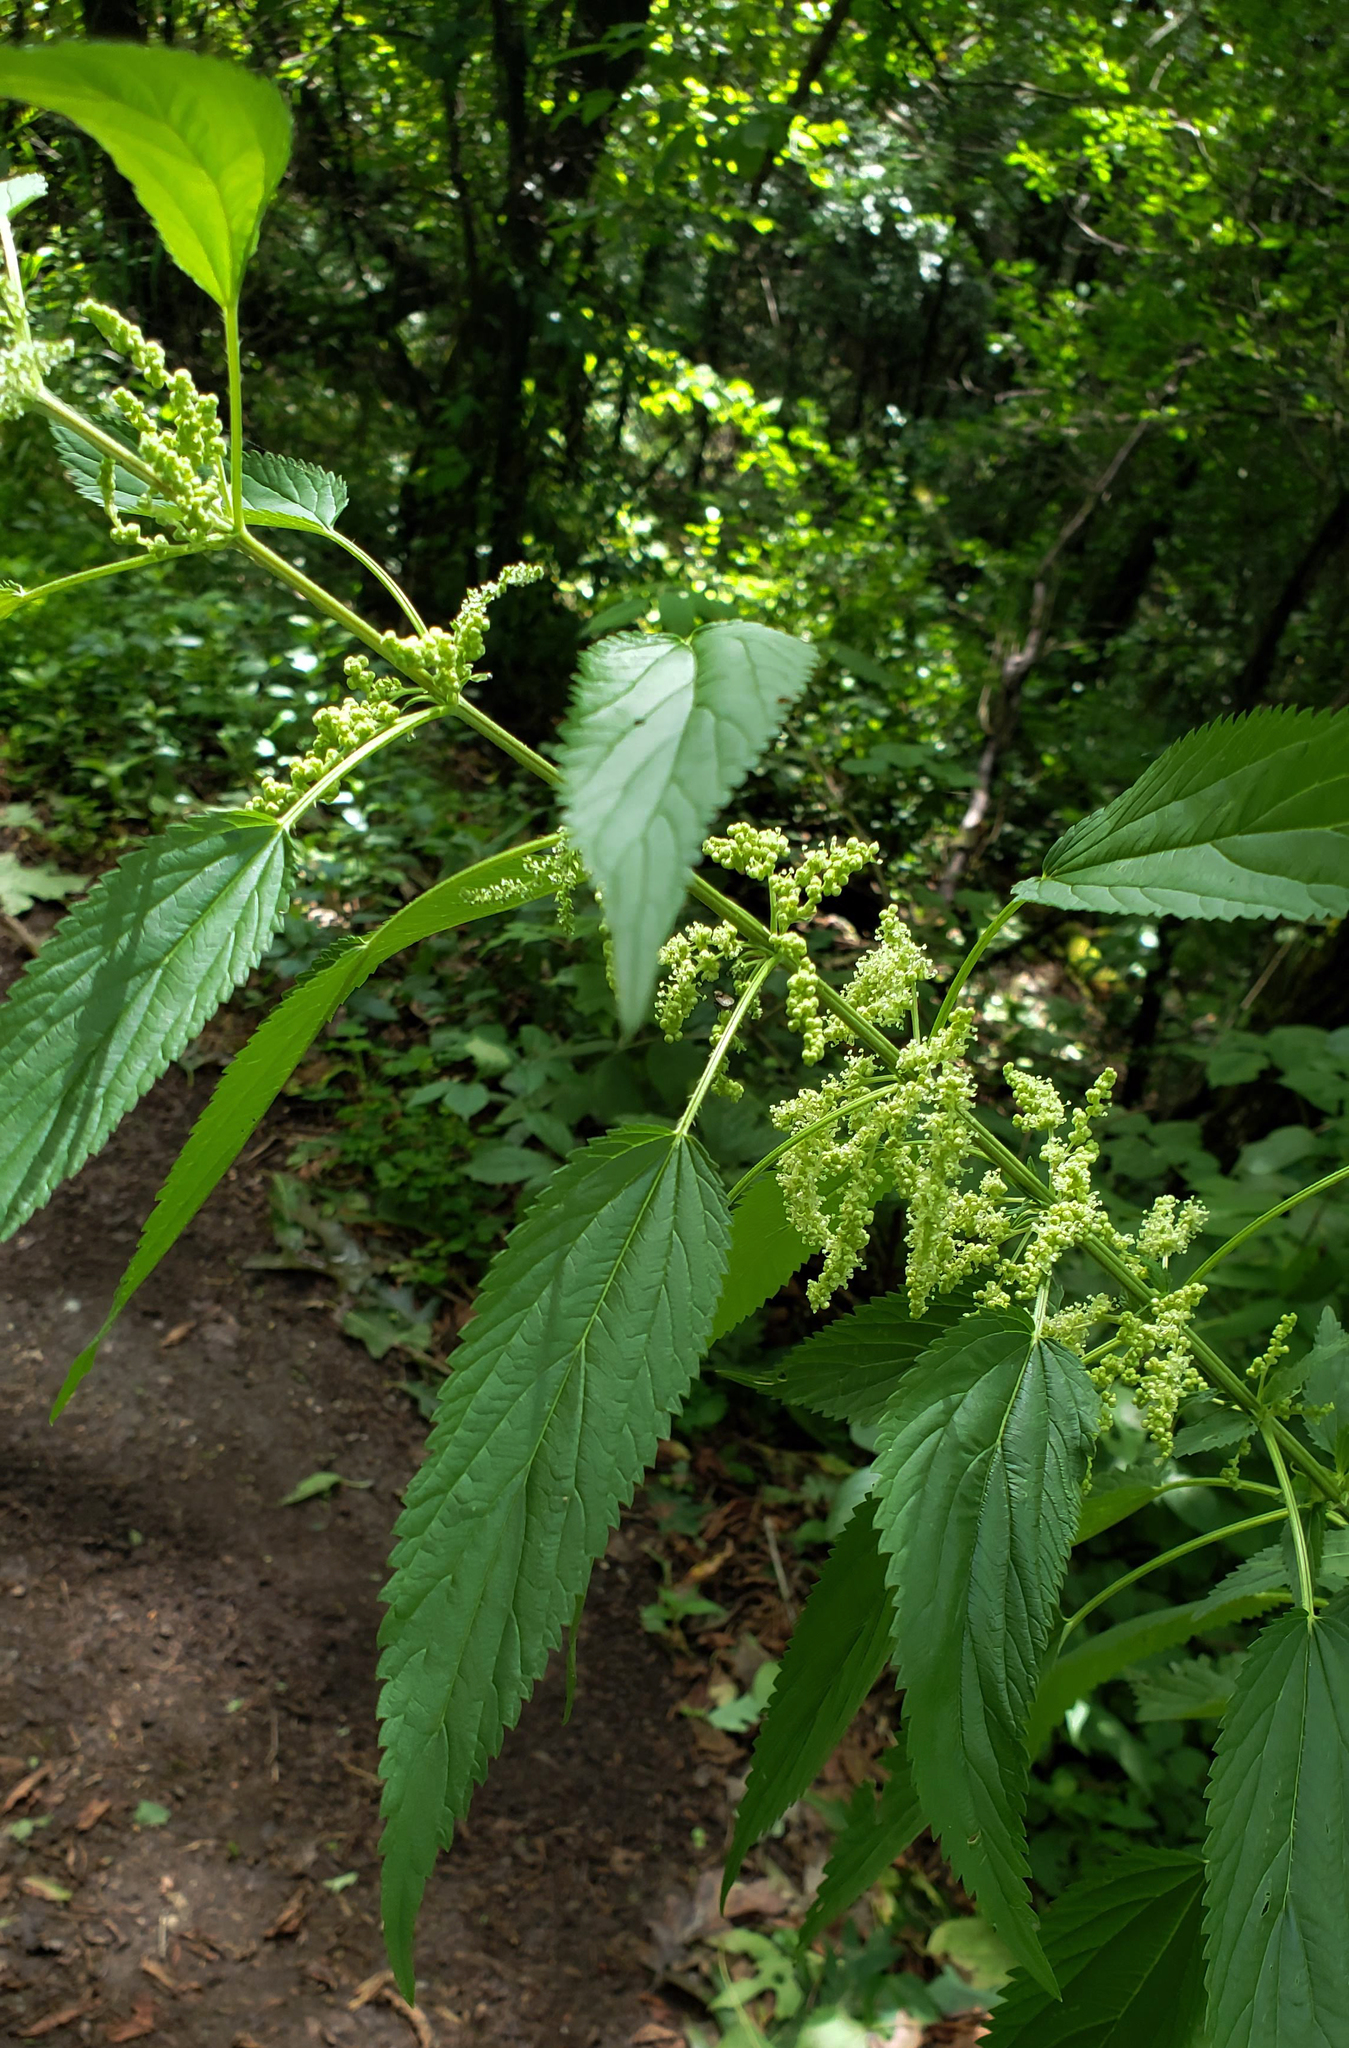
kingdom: Plantae
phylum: Tracheophyta
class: Magnoliopsida
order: Rosales
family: Urticaceae
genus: Urtica
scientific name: Urtica dioica
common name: Common nettle
